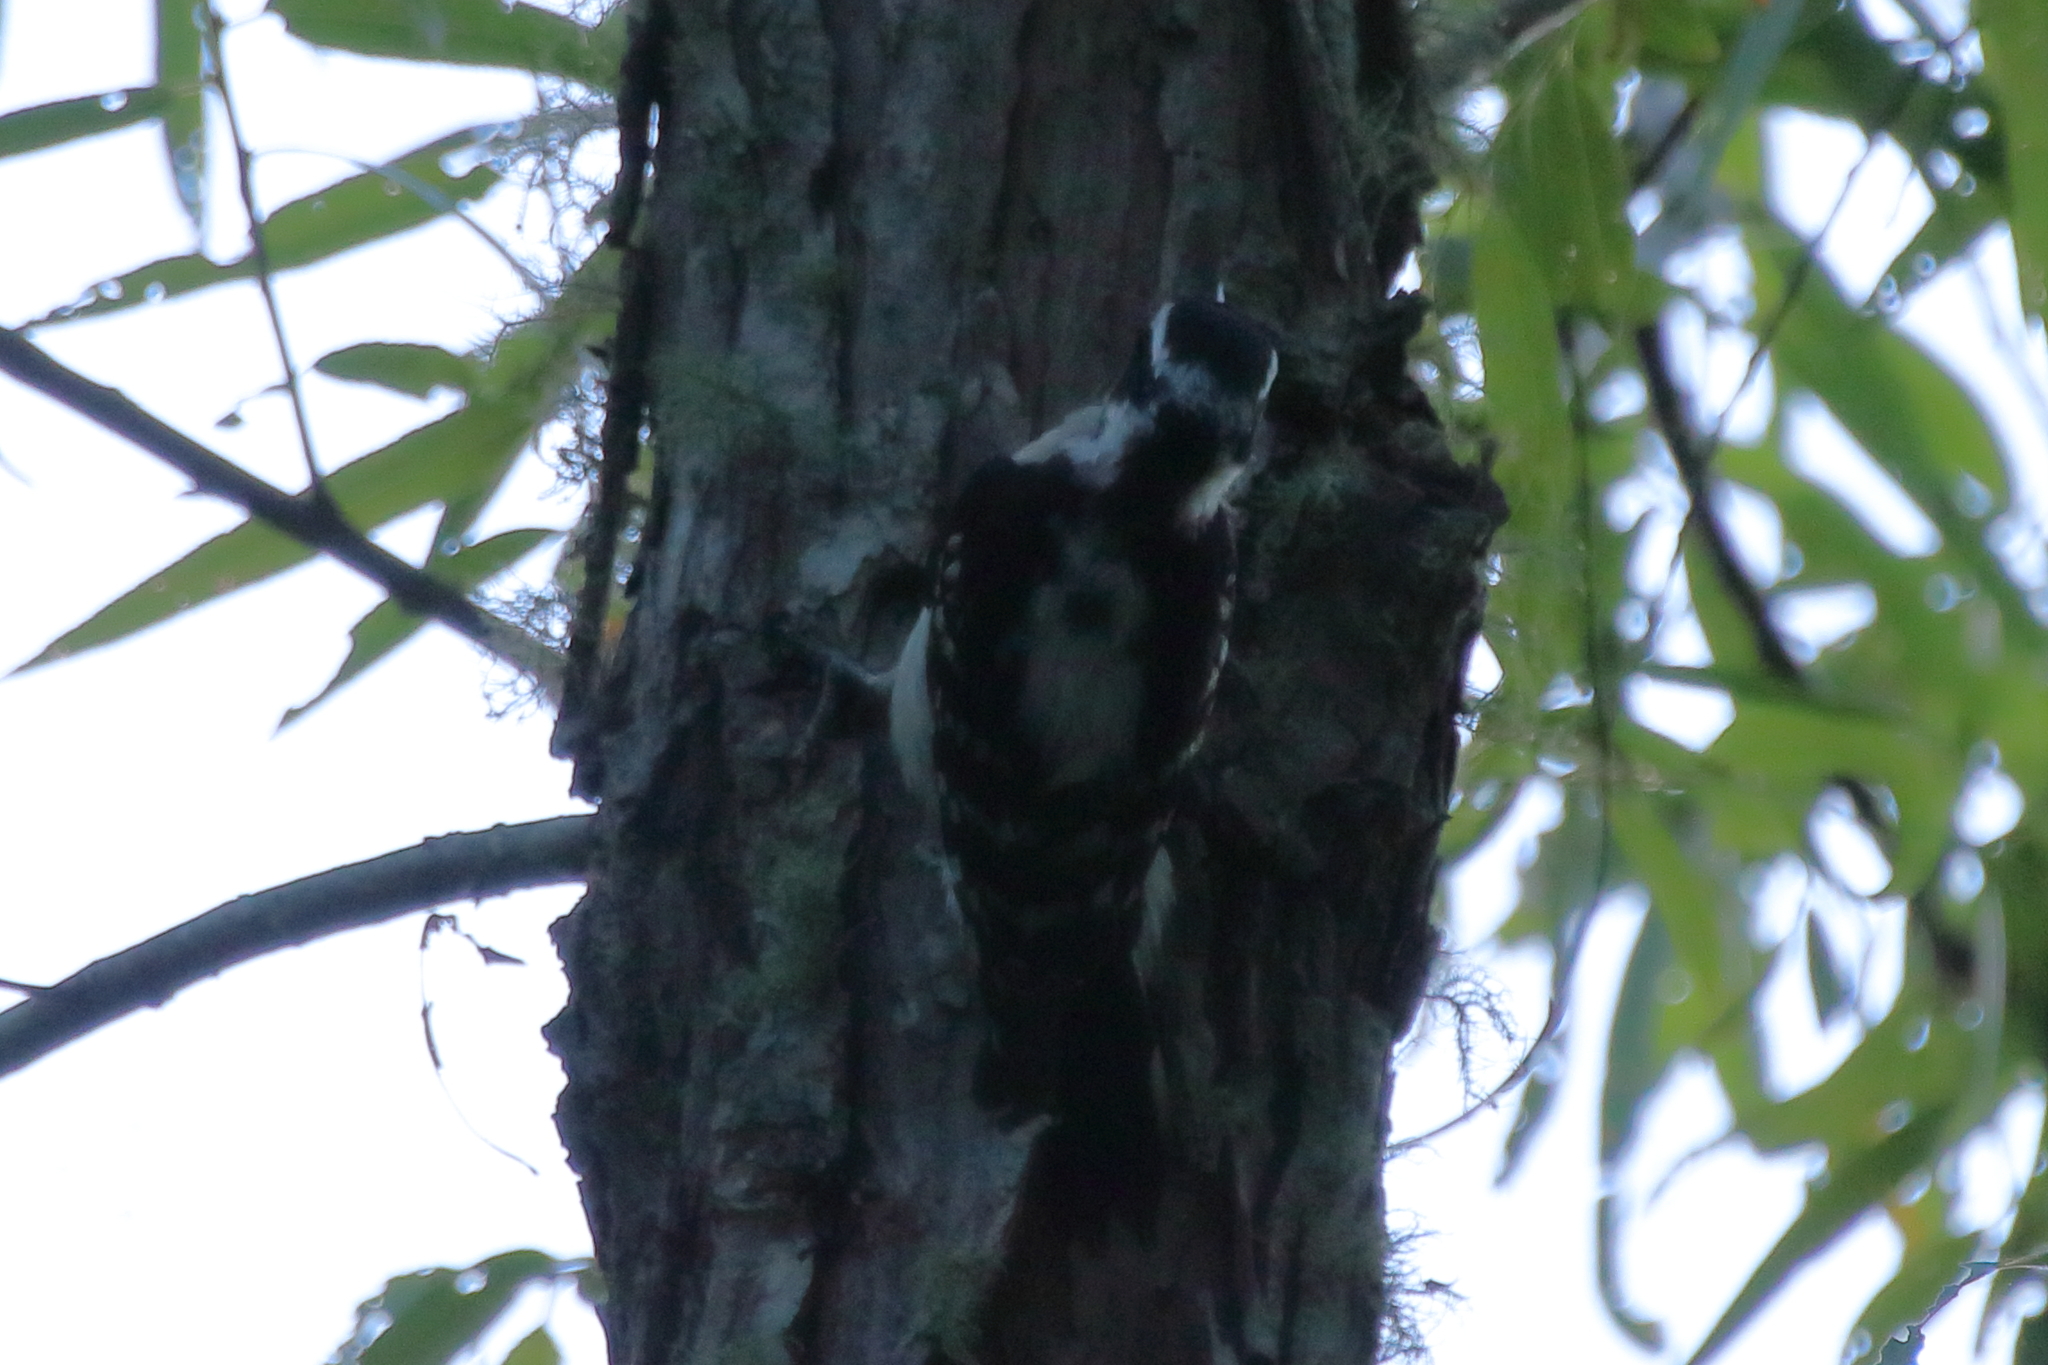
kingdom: Animalia
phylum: Chordata
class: Aves
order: Piciformes
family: Picidae
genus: Dryobates
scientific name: Dryobates pubescens
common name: Downy woodpecker
